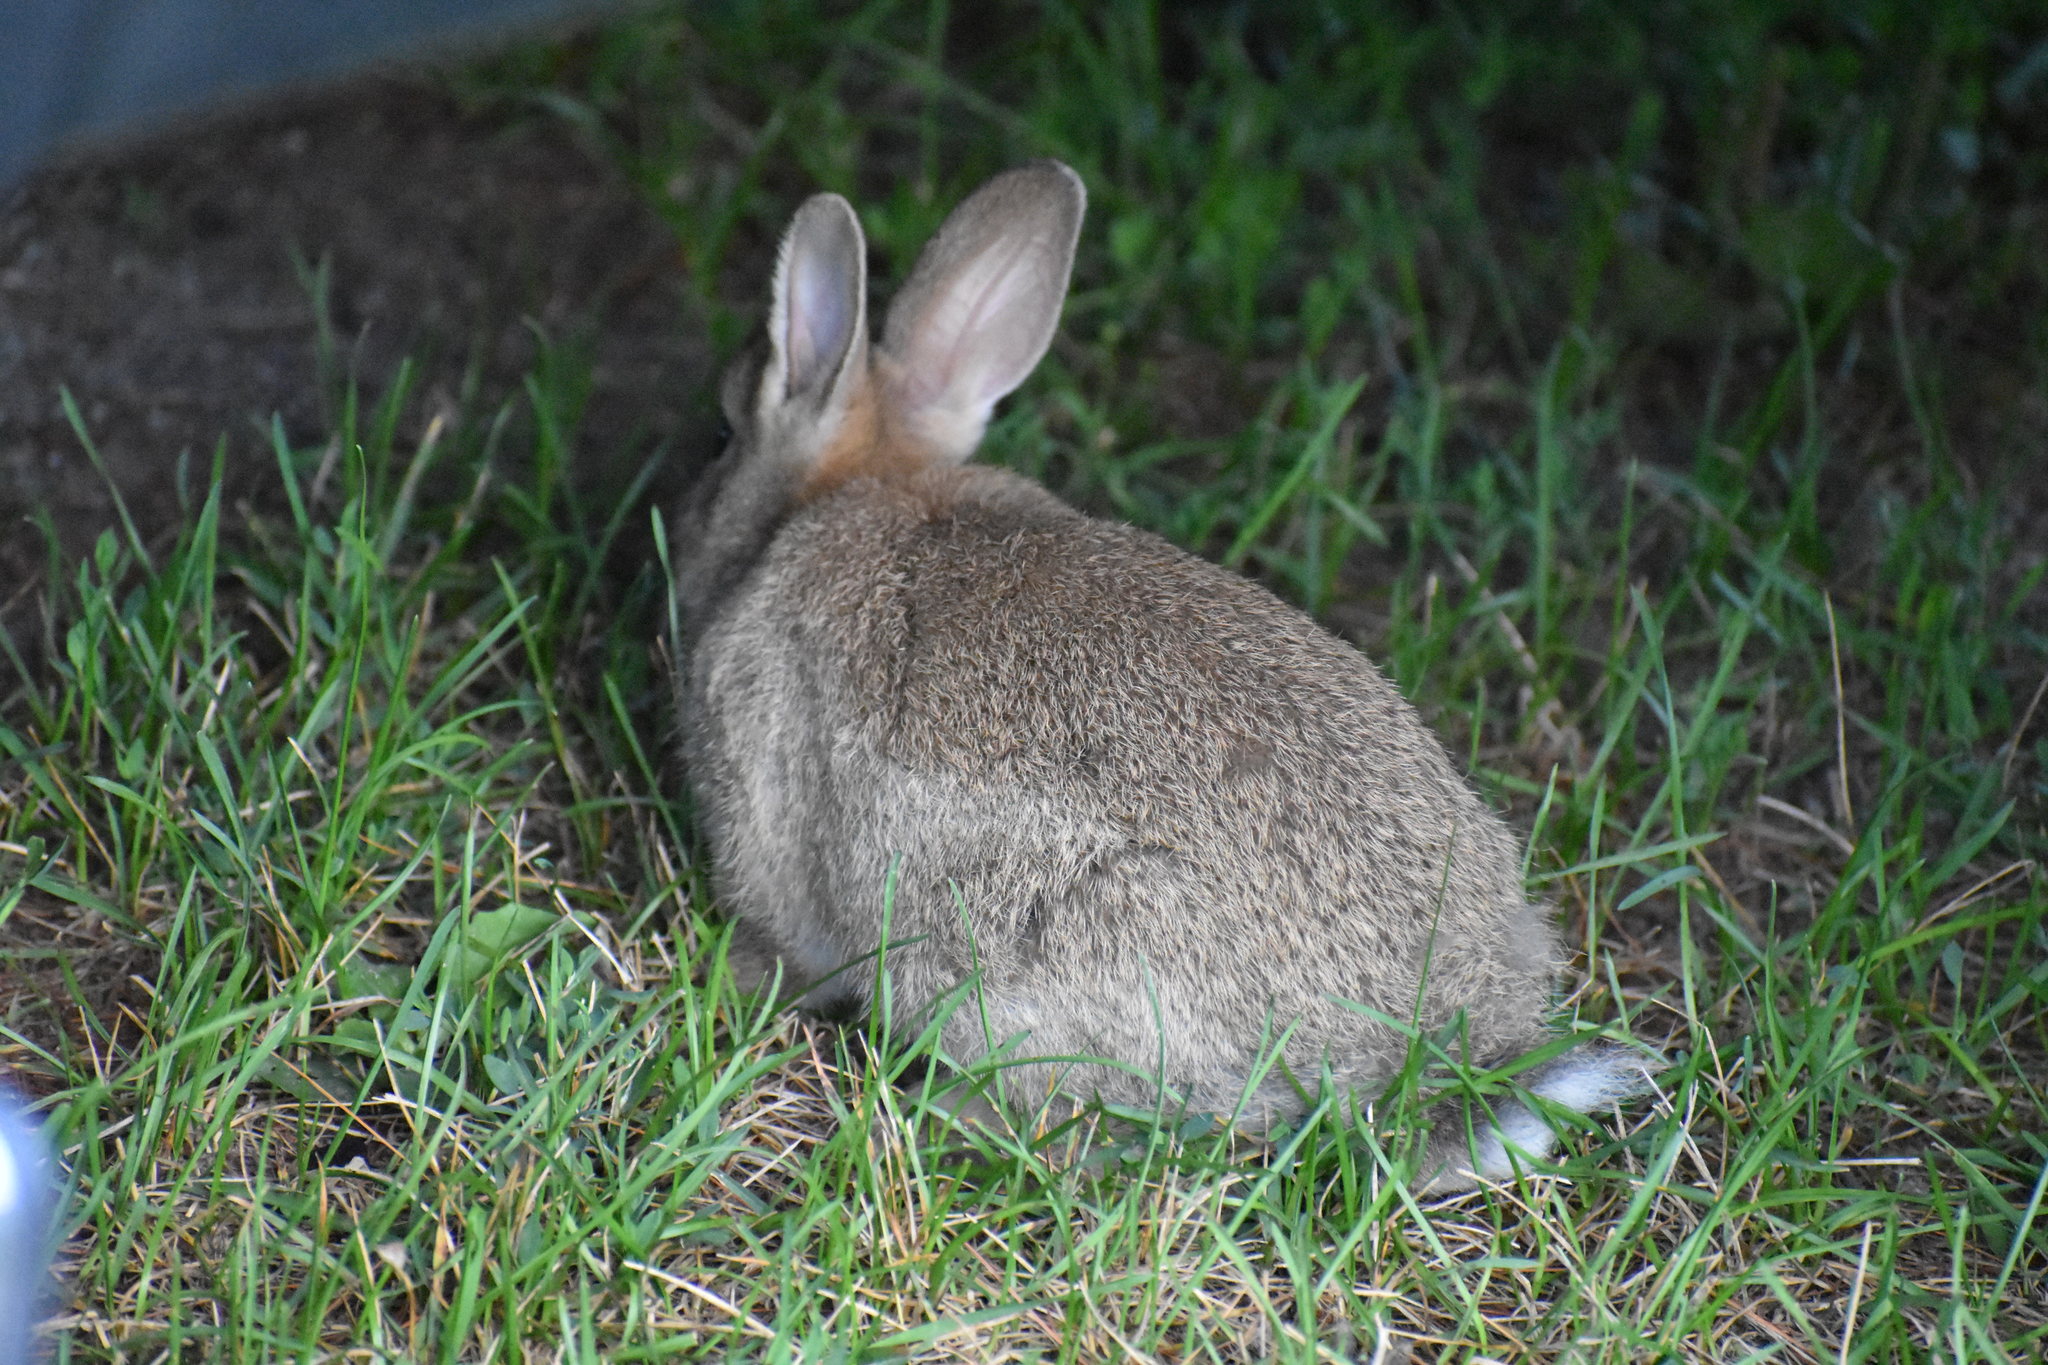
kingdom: Animalia
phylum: Chordata
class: Mammalia
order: Lagomorpha
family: Leporidae
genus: Oryctolagus
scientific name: Oryctolagus cuniculus
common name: European rabbit
